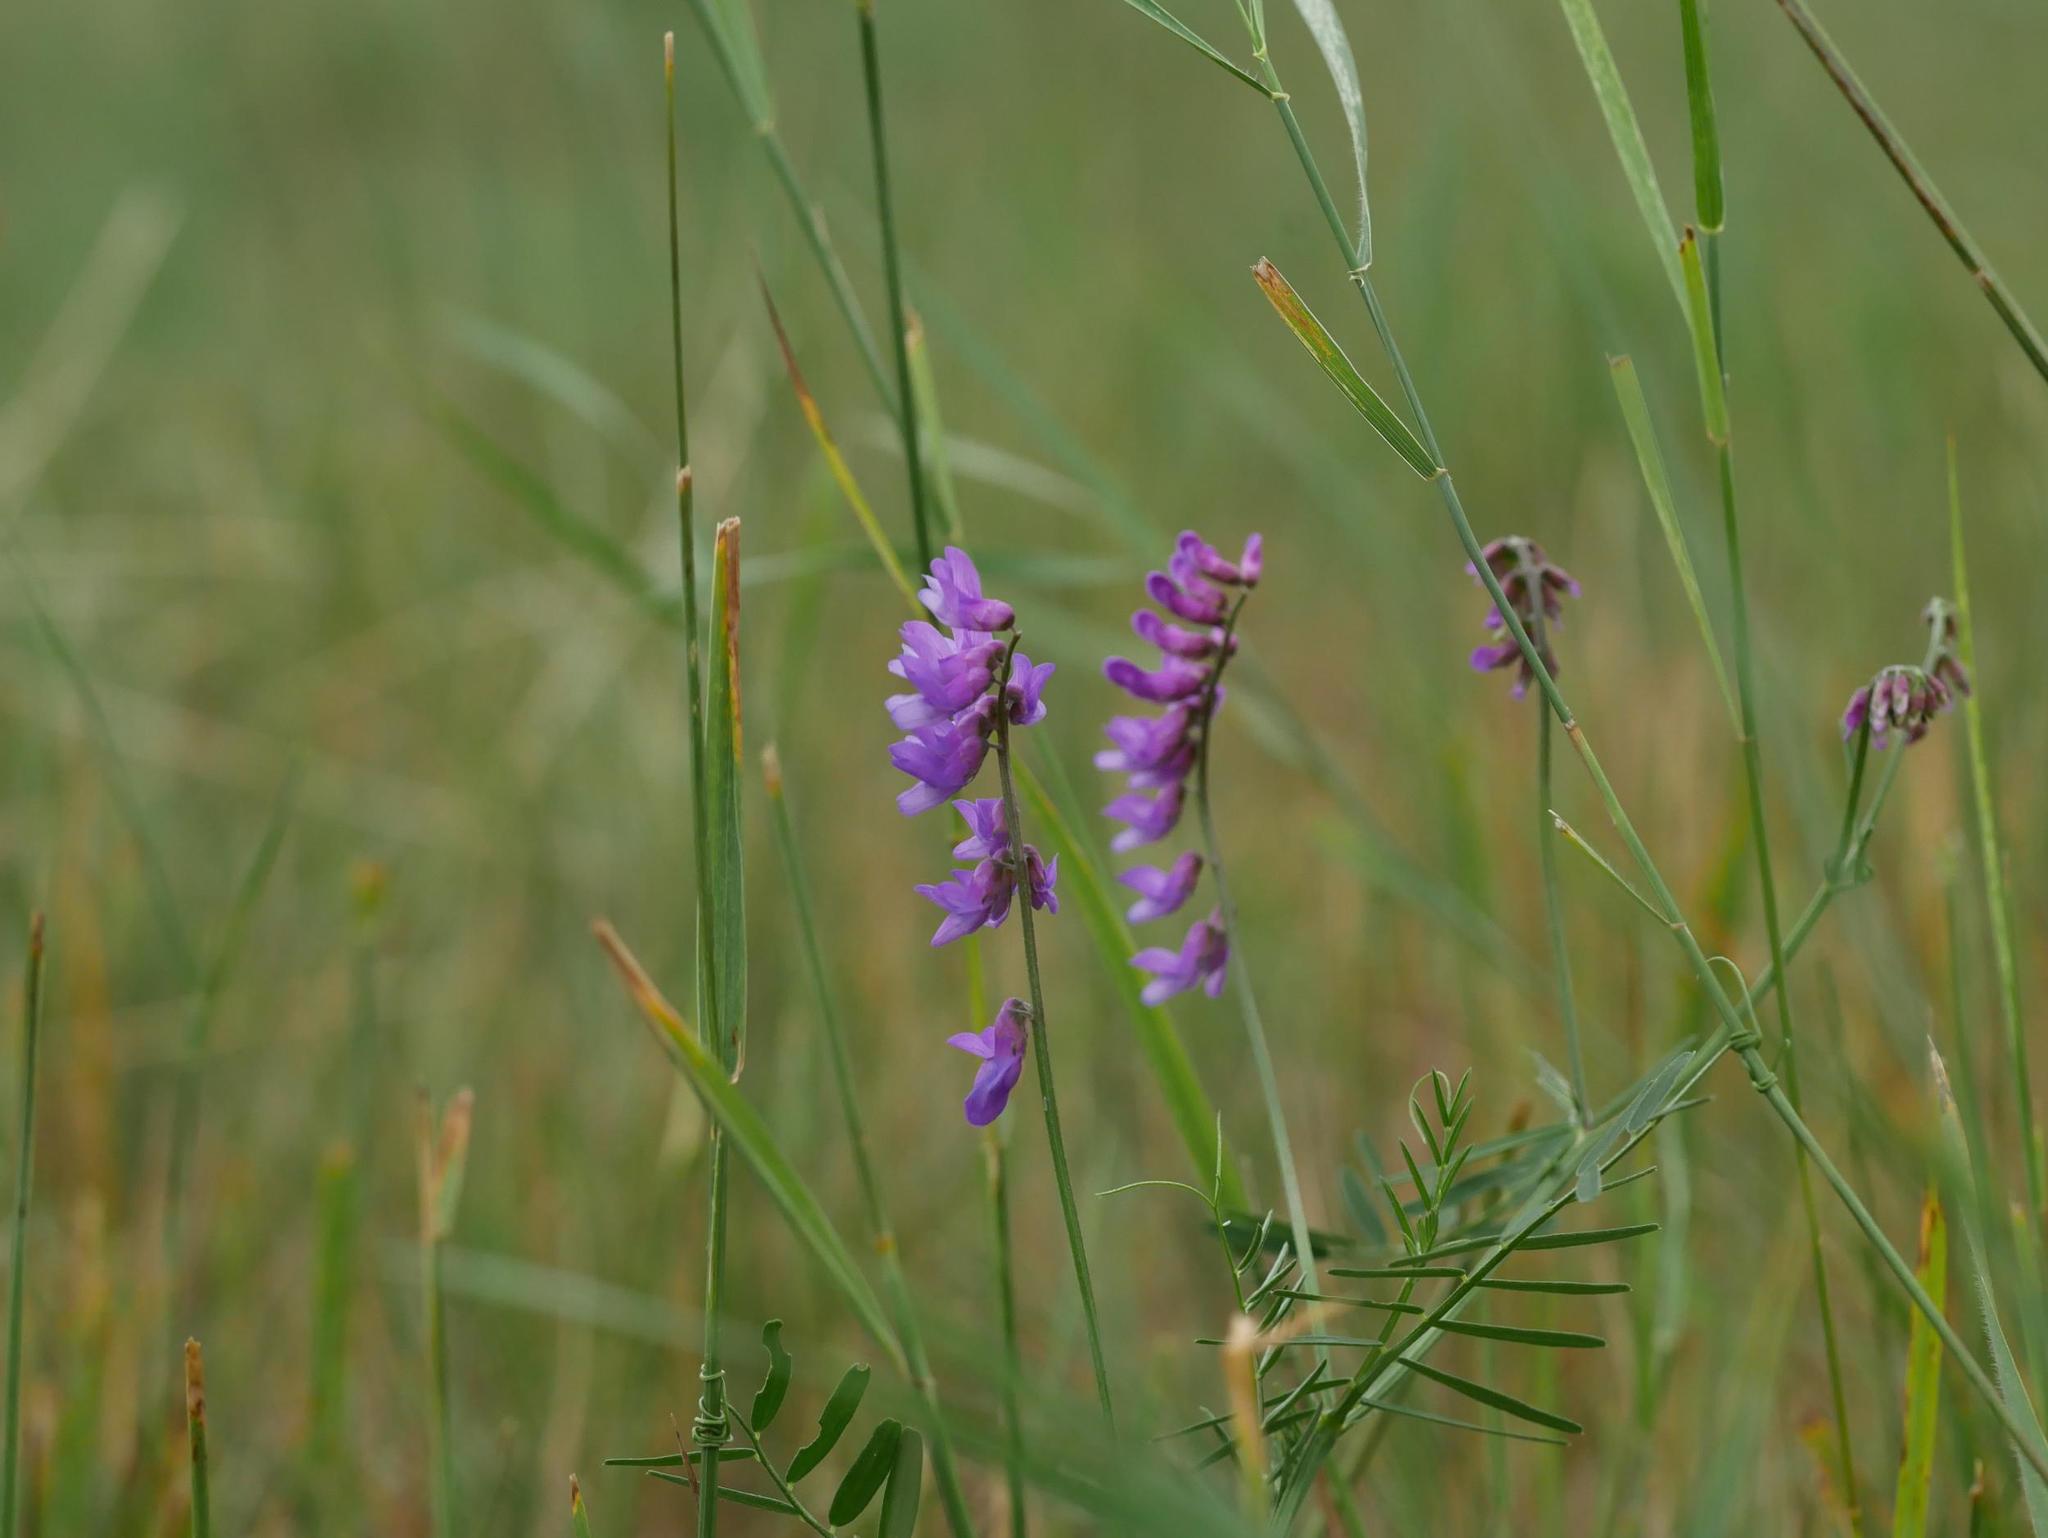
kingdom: Plantae
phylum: Tracheophyta
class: Magnoliopsida
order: Fabales
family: Fabaceae
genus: Vicia
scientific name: Vicia cracca
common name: Bird vetch
